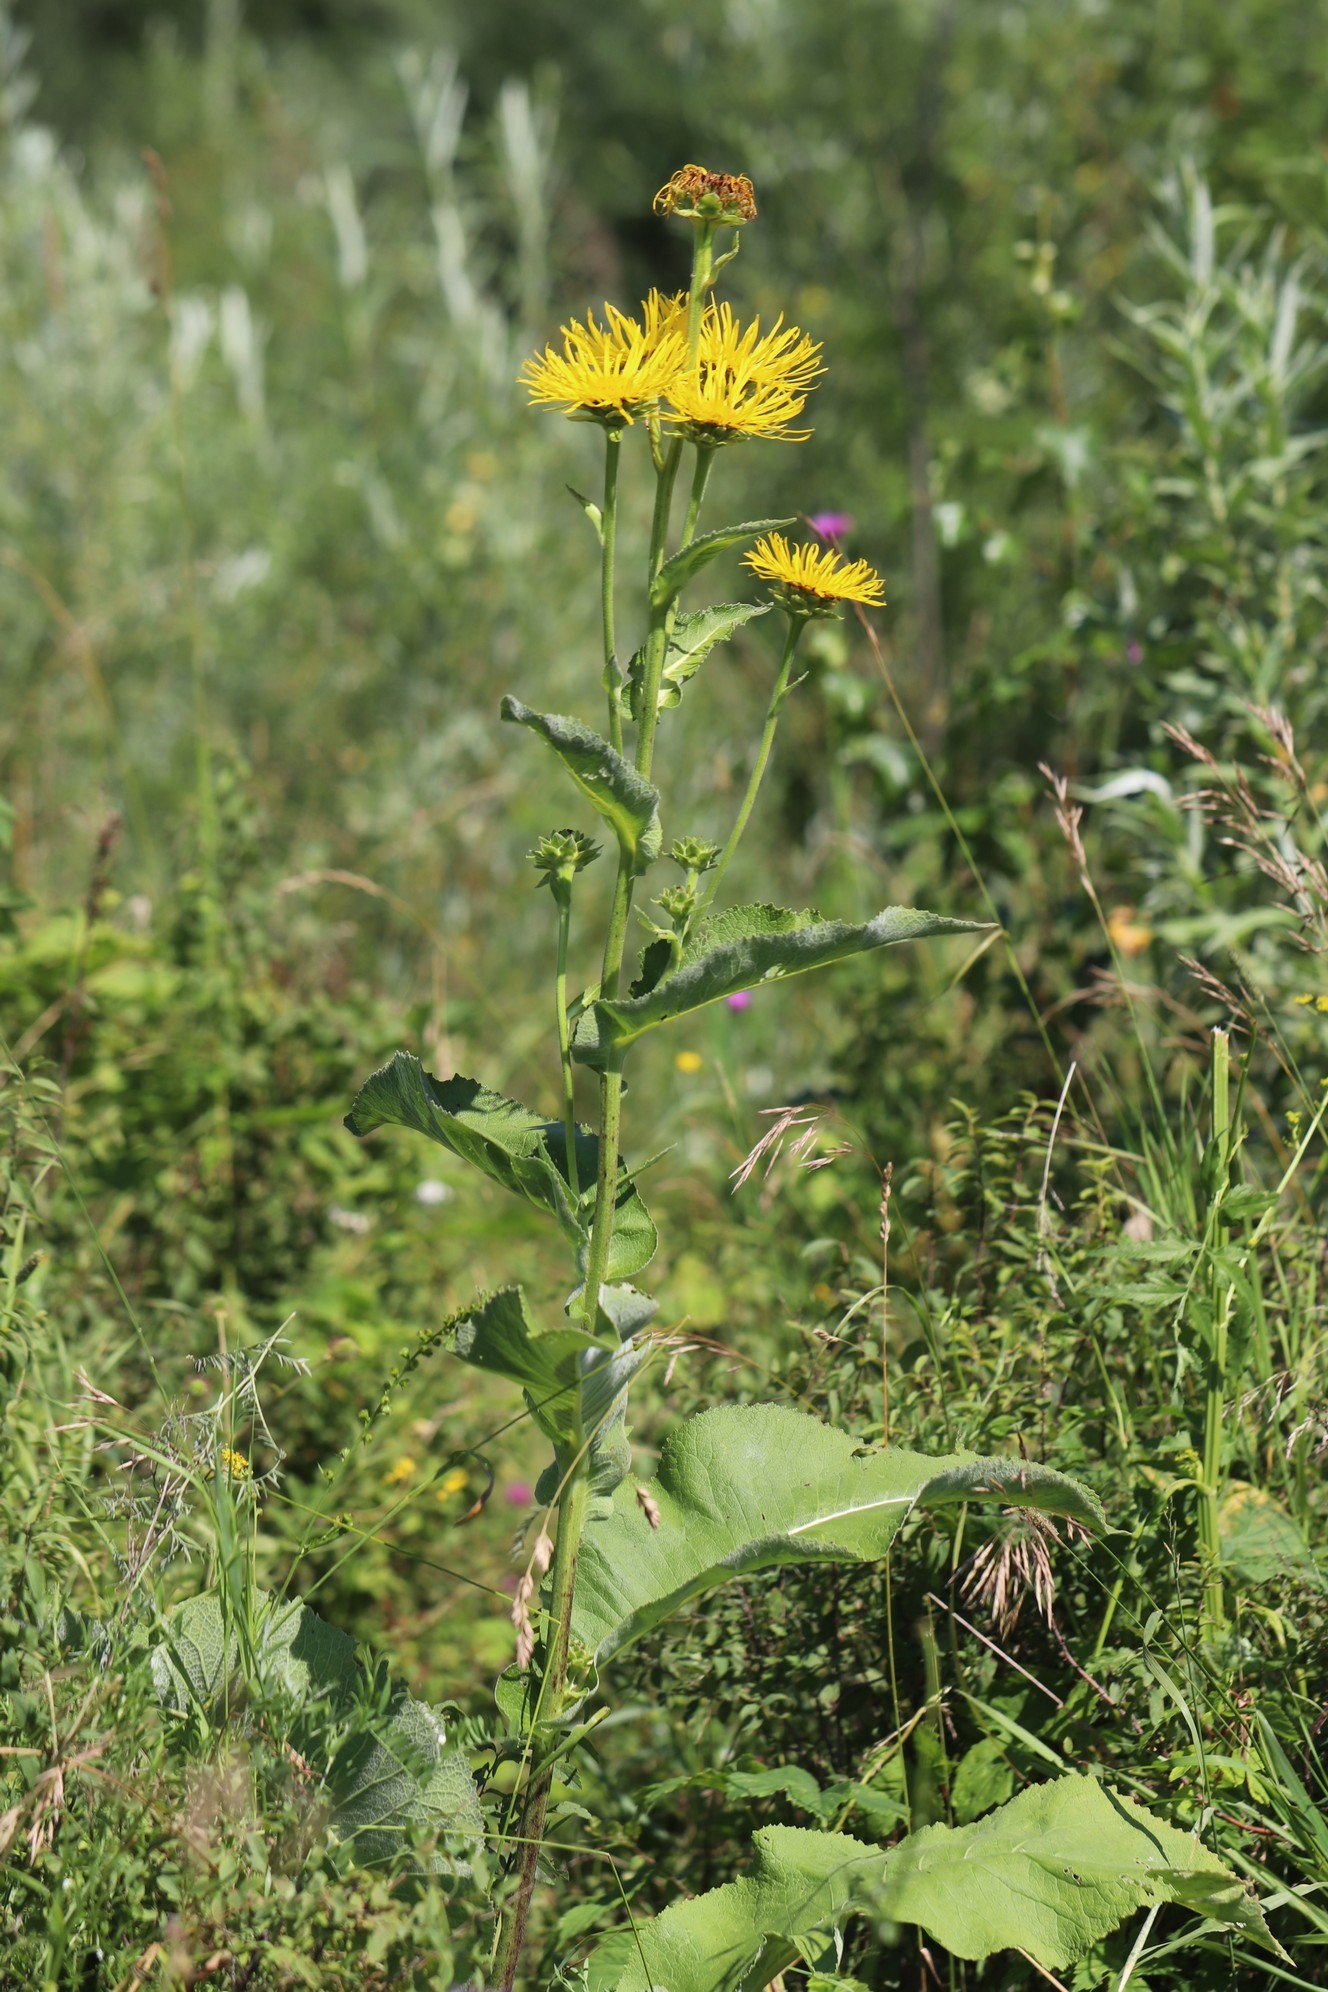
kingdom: Plantae
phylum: Tracheophyta
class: Magnoliopsida
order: Asterales
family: Asteraceae
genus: Inula
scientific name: Inula helenium
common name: Elecampane
